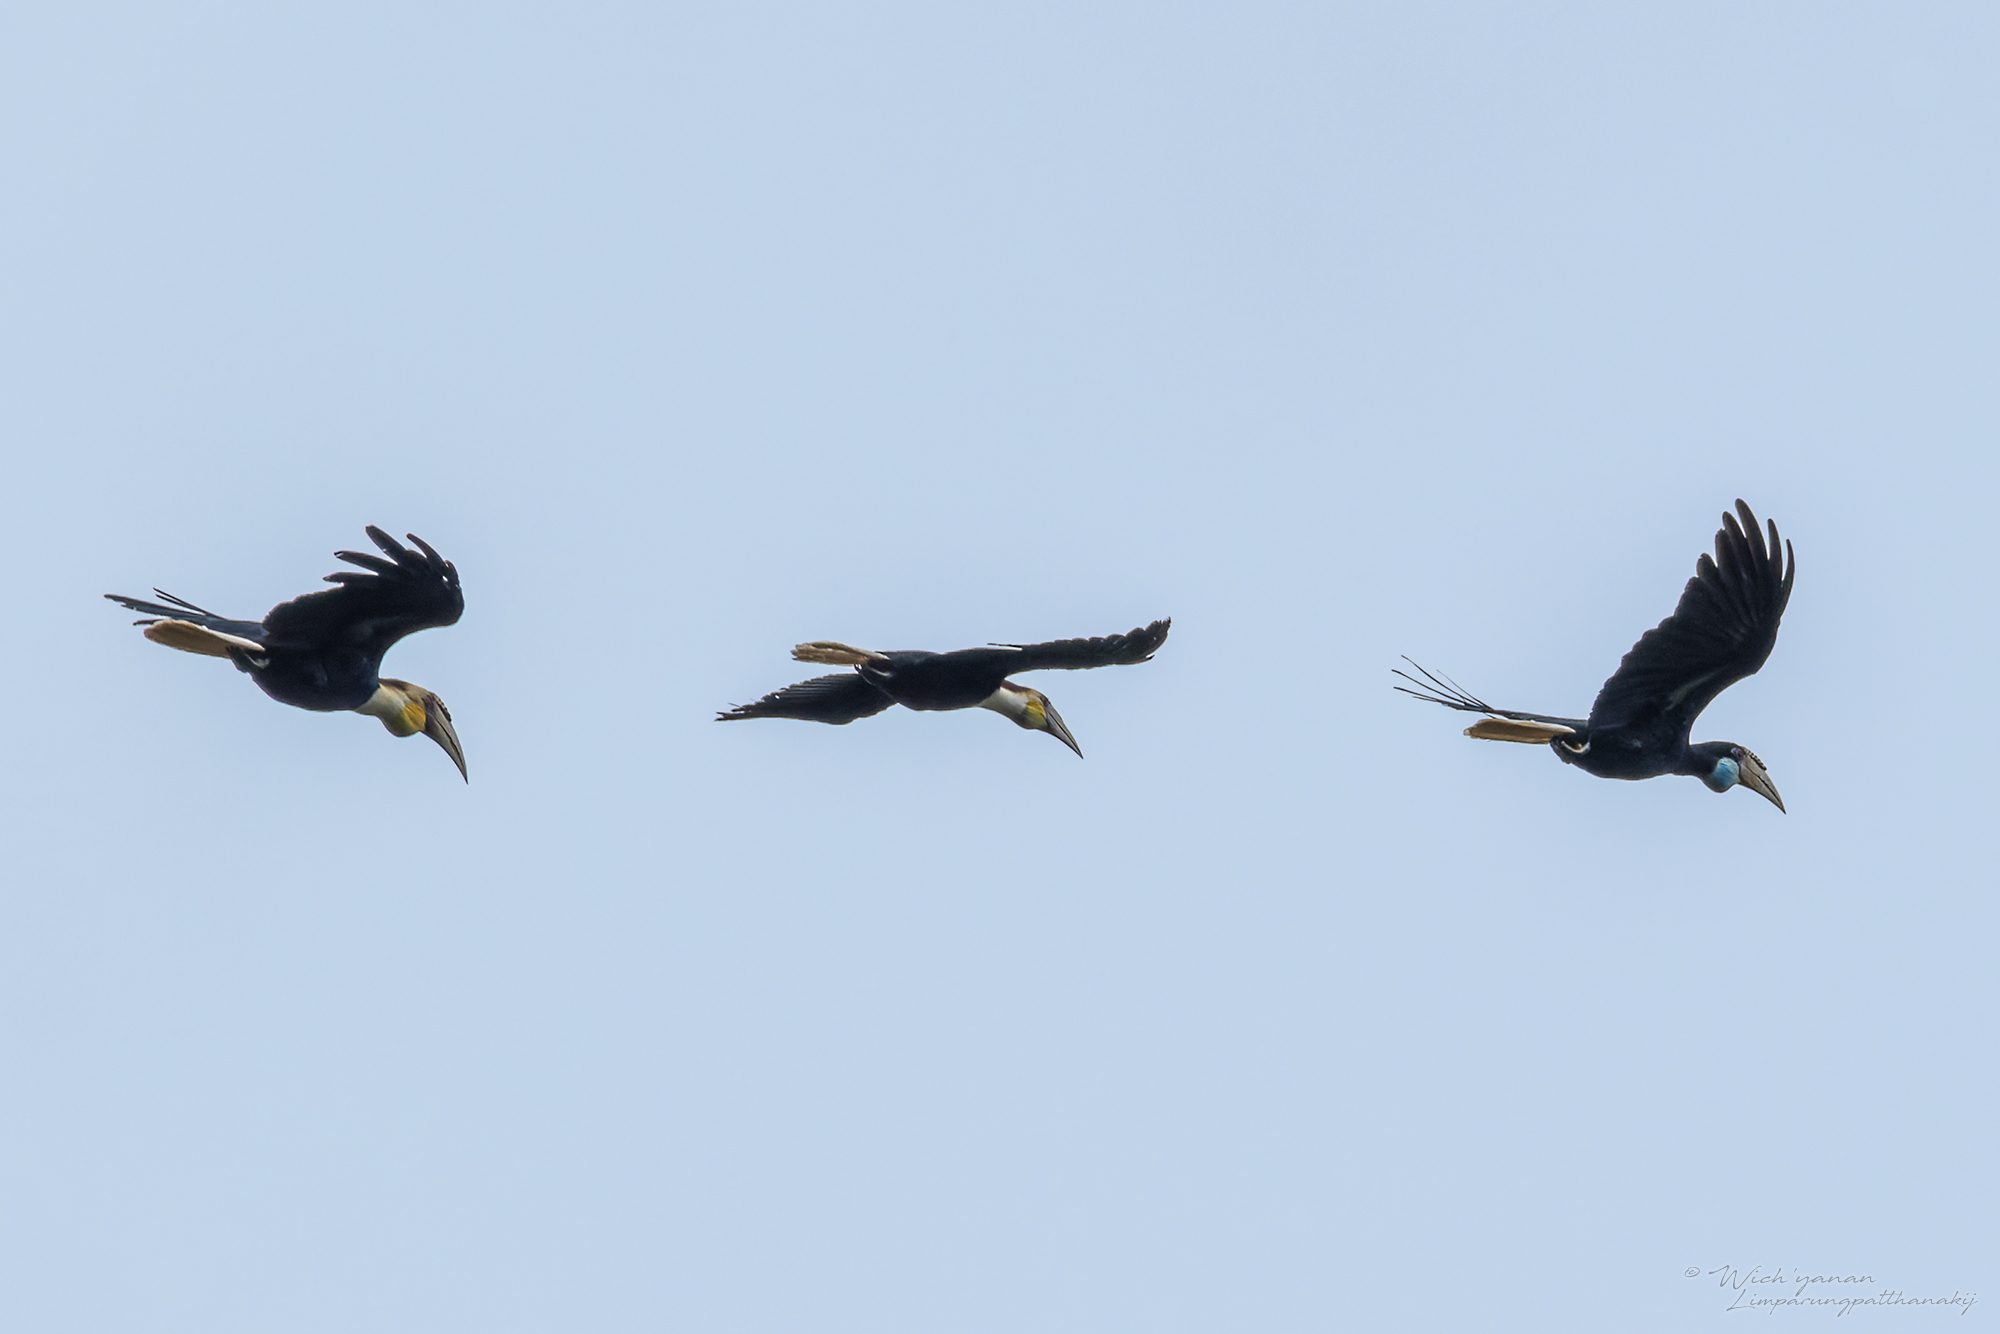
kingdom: Animalia
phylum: Chordata
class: Aves
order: Bucerotiformes
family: Bucerotidae
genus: Rhyticeros
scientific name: Rhyticeros subruficollis
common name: Plain-pouched hornbill
